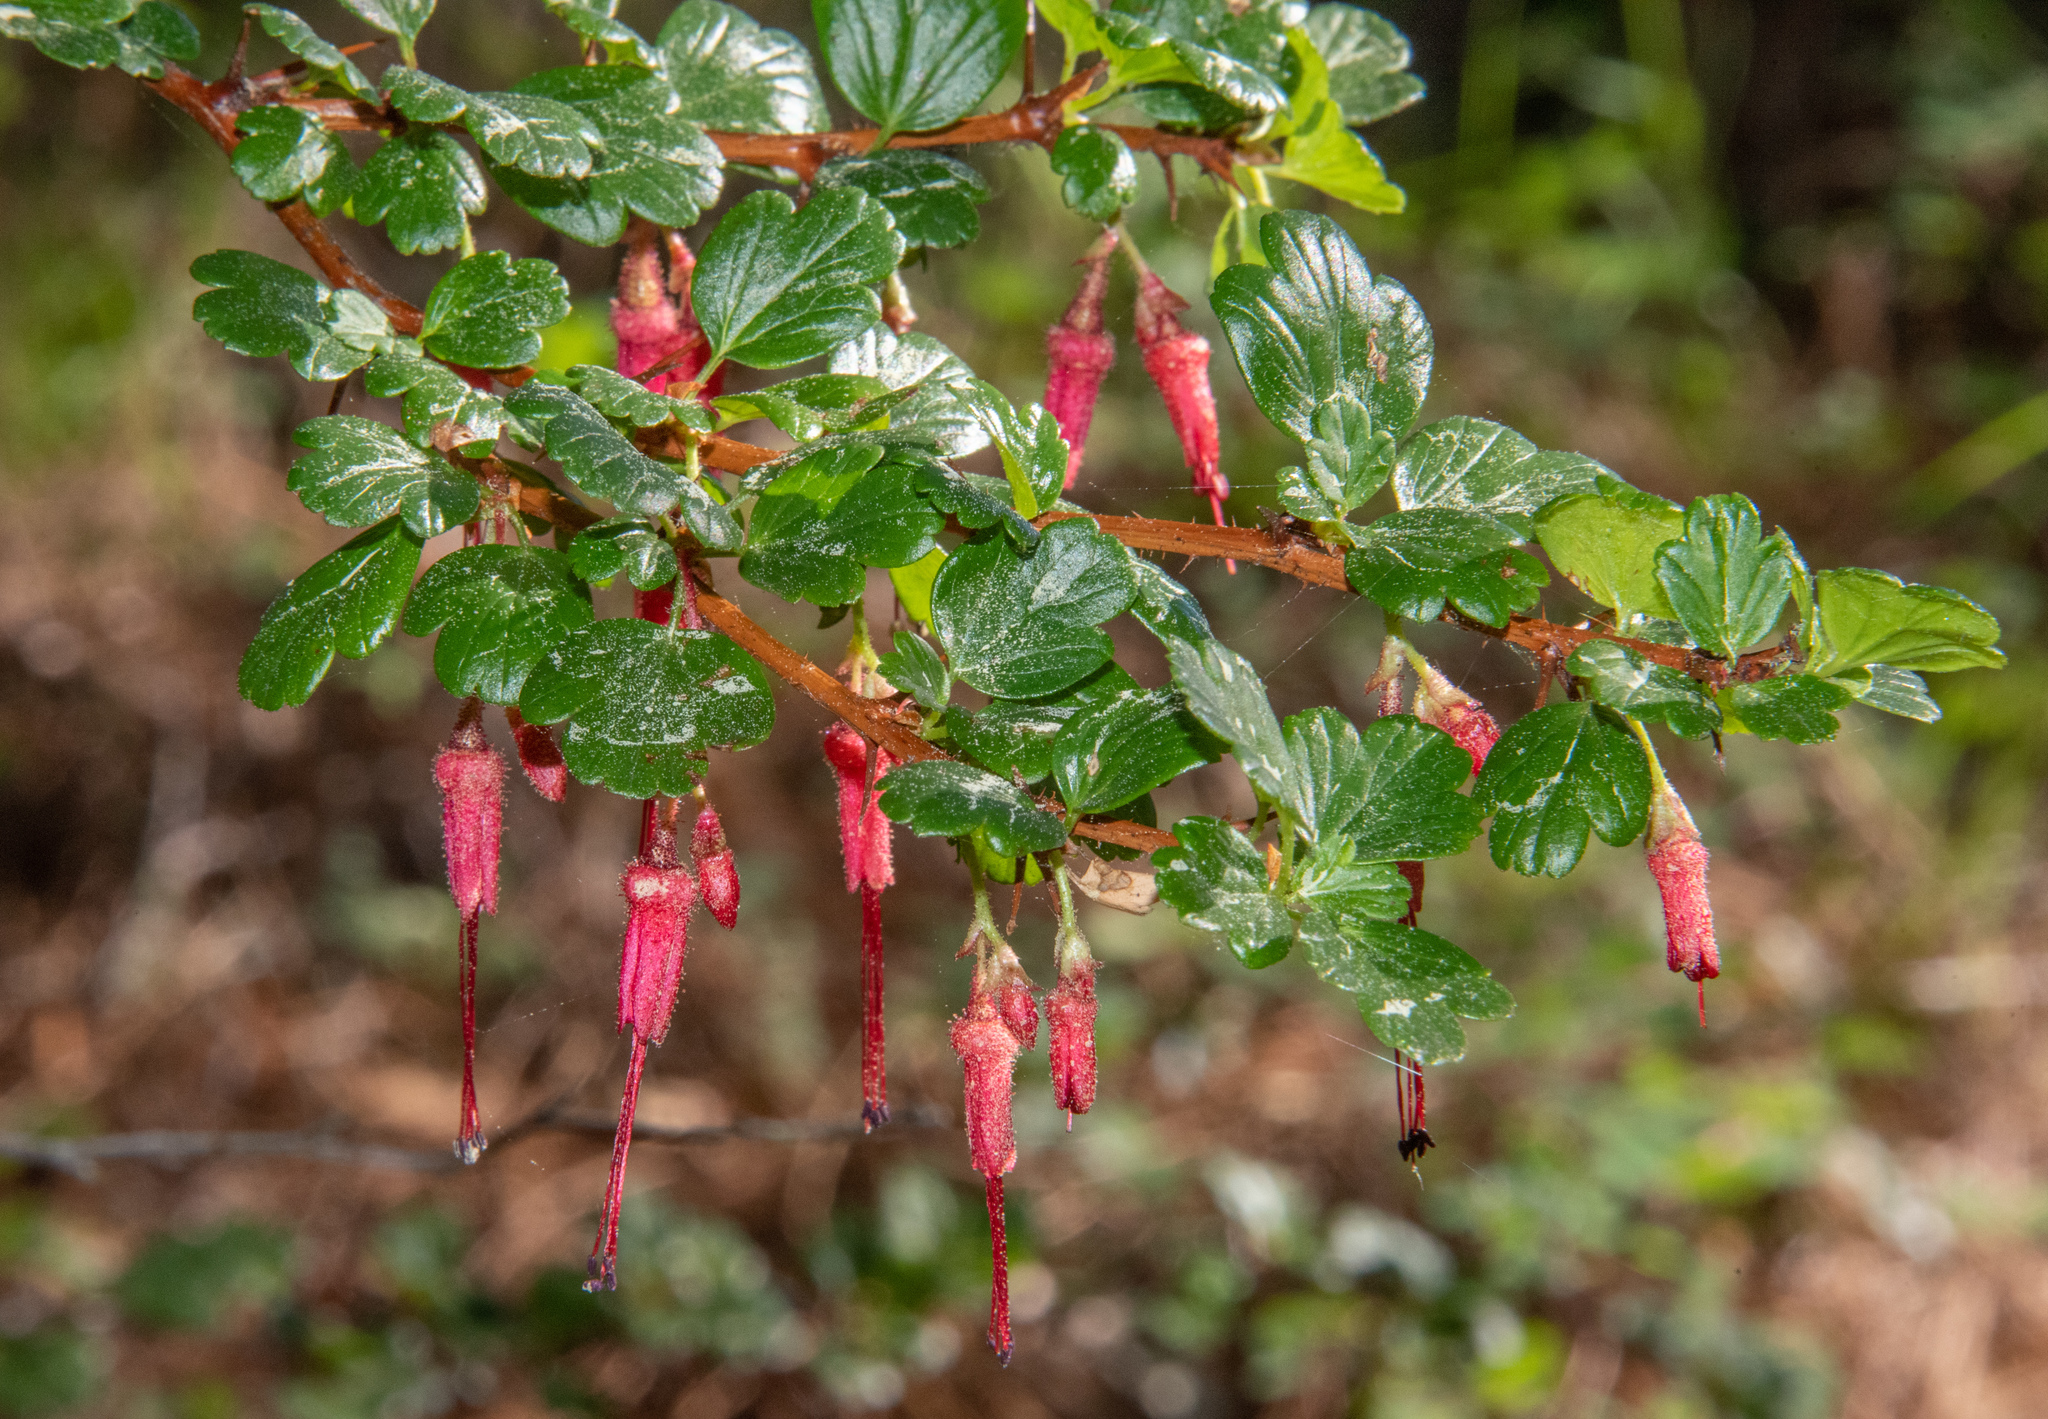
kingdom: Plantae
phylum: Tracheophyta
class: Magnoliopsida
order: Saxifragales
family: Grossulariaceae
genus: Ribes
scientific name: Ribes speciosum
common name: Fuchsia-flower gooseberry
